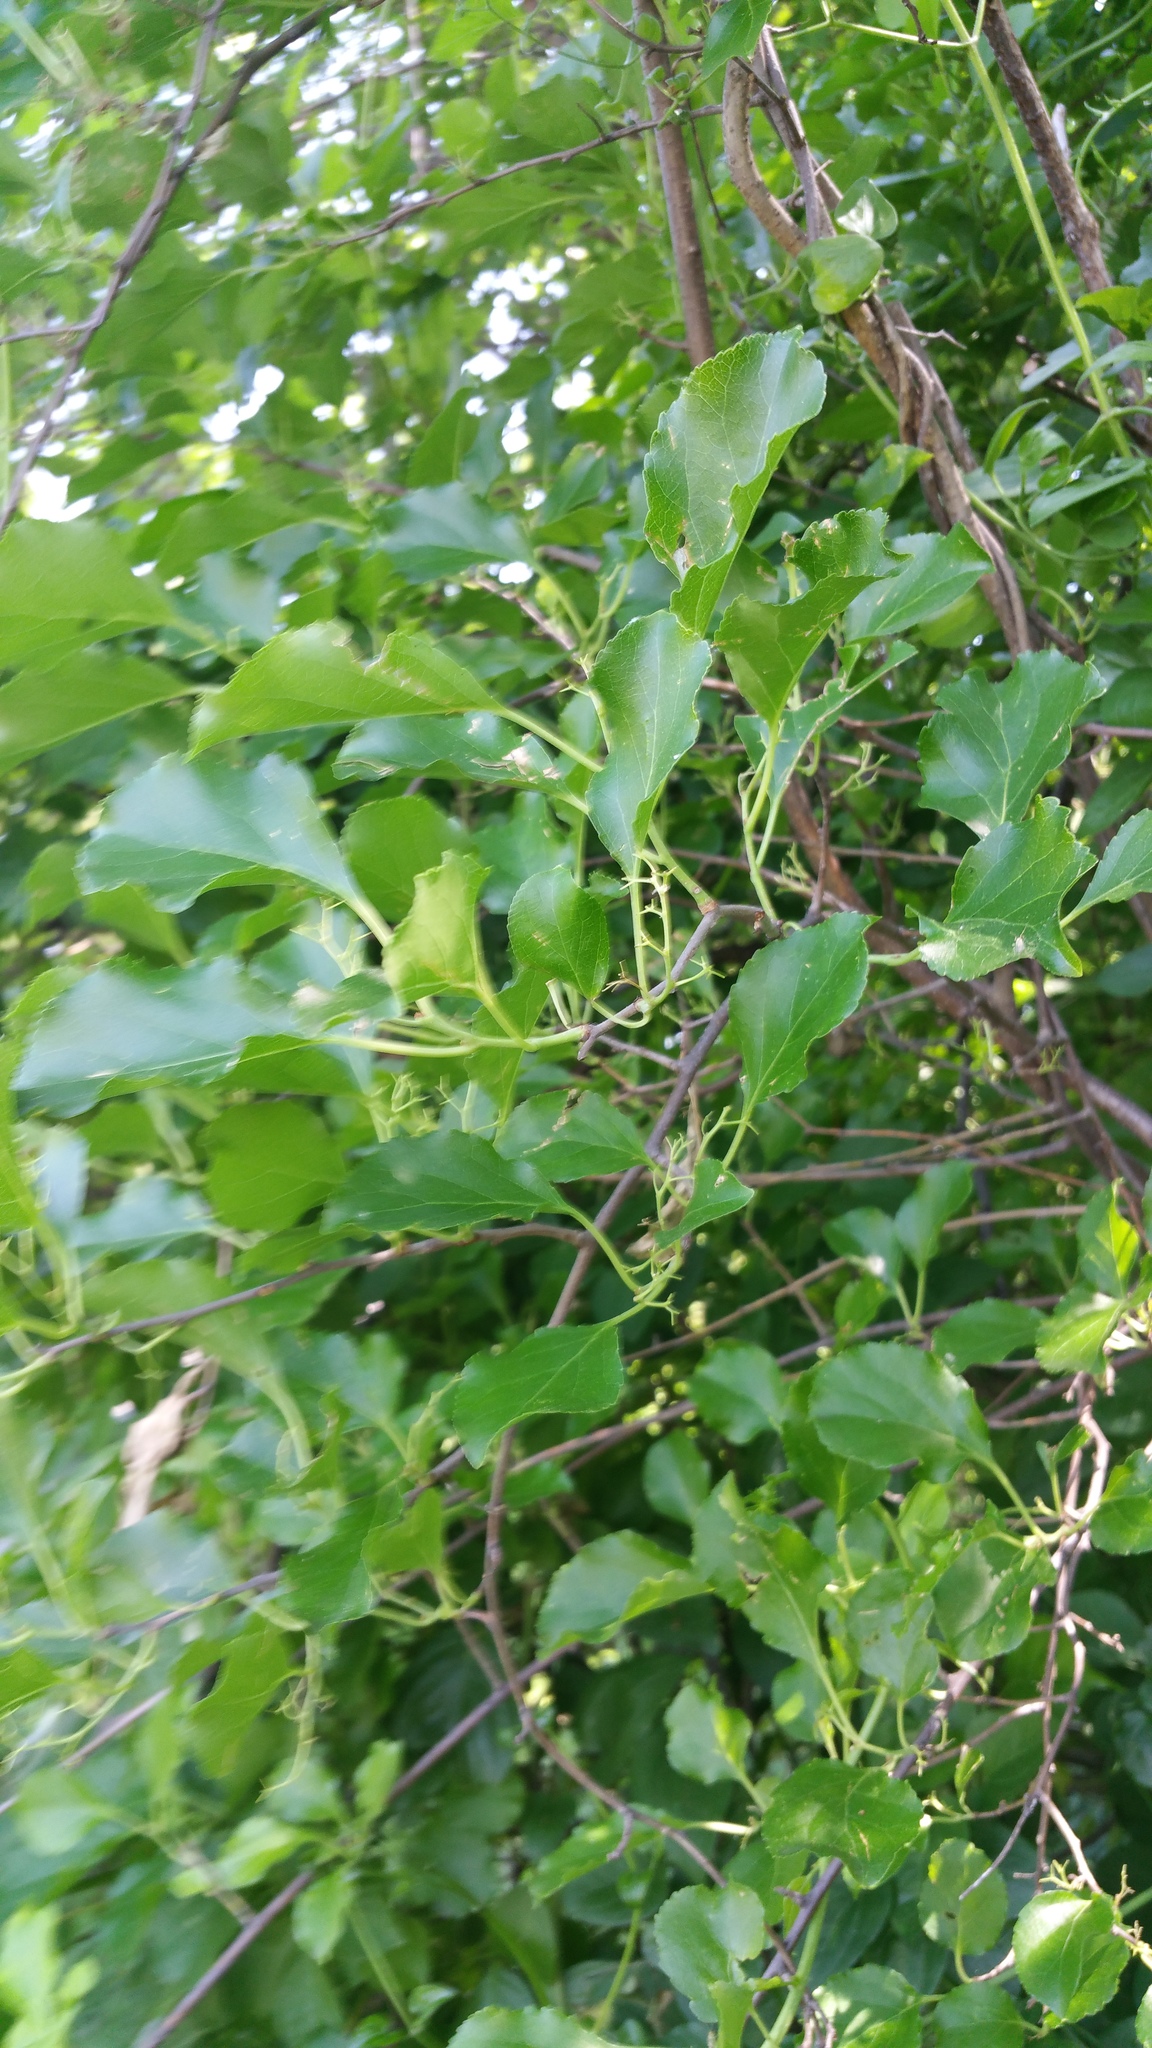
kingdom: Plantae
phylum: Tracheophyta
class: Magnoliopsida
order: Celastrales
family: Celastraceae
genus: Celastrus
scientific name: Celastrus orbiculatus
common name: Oriental bittersweet
